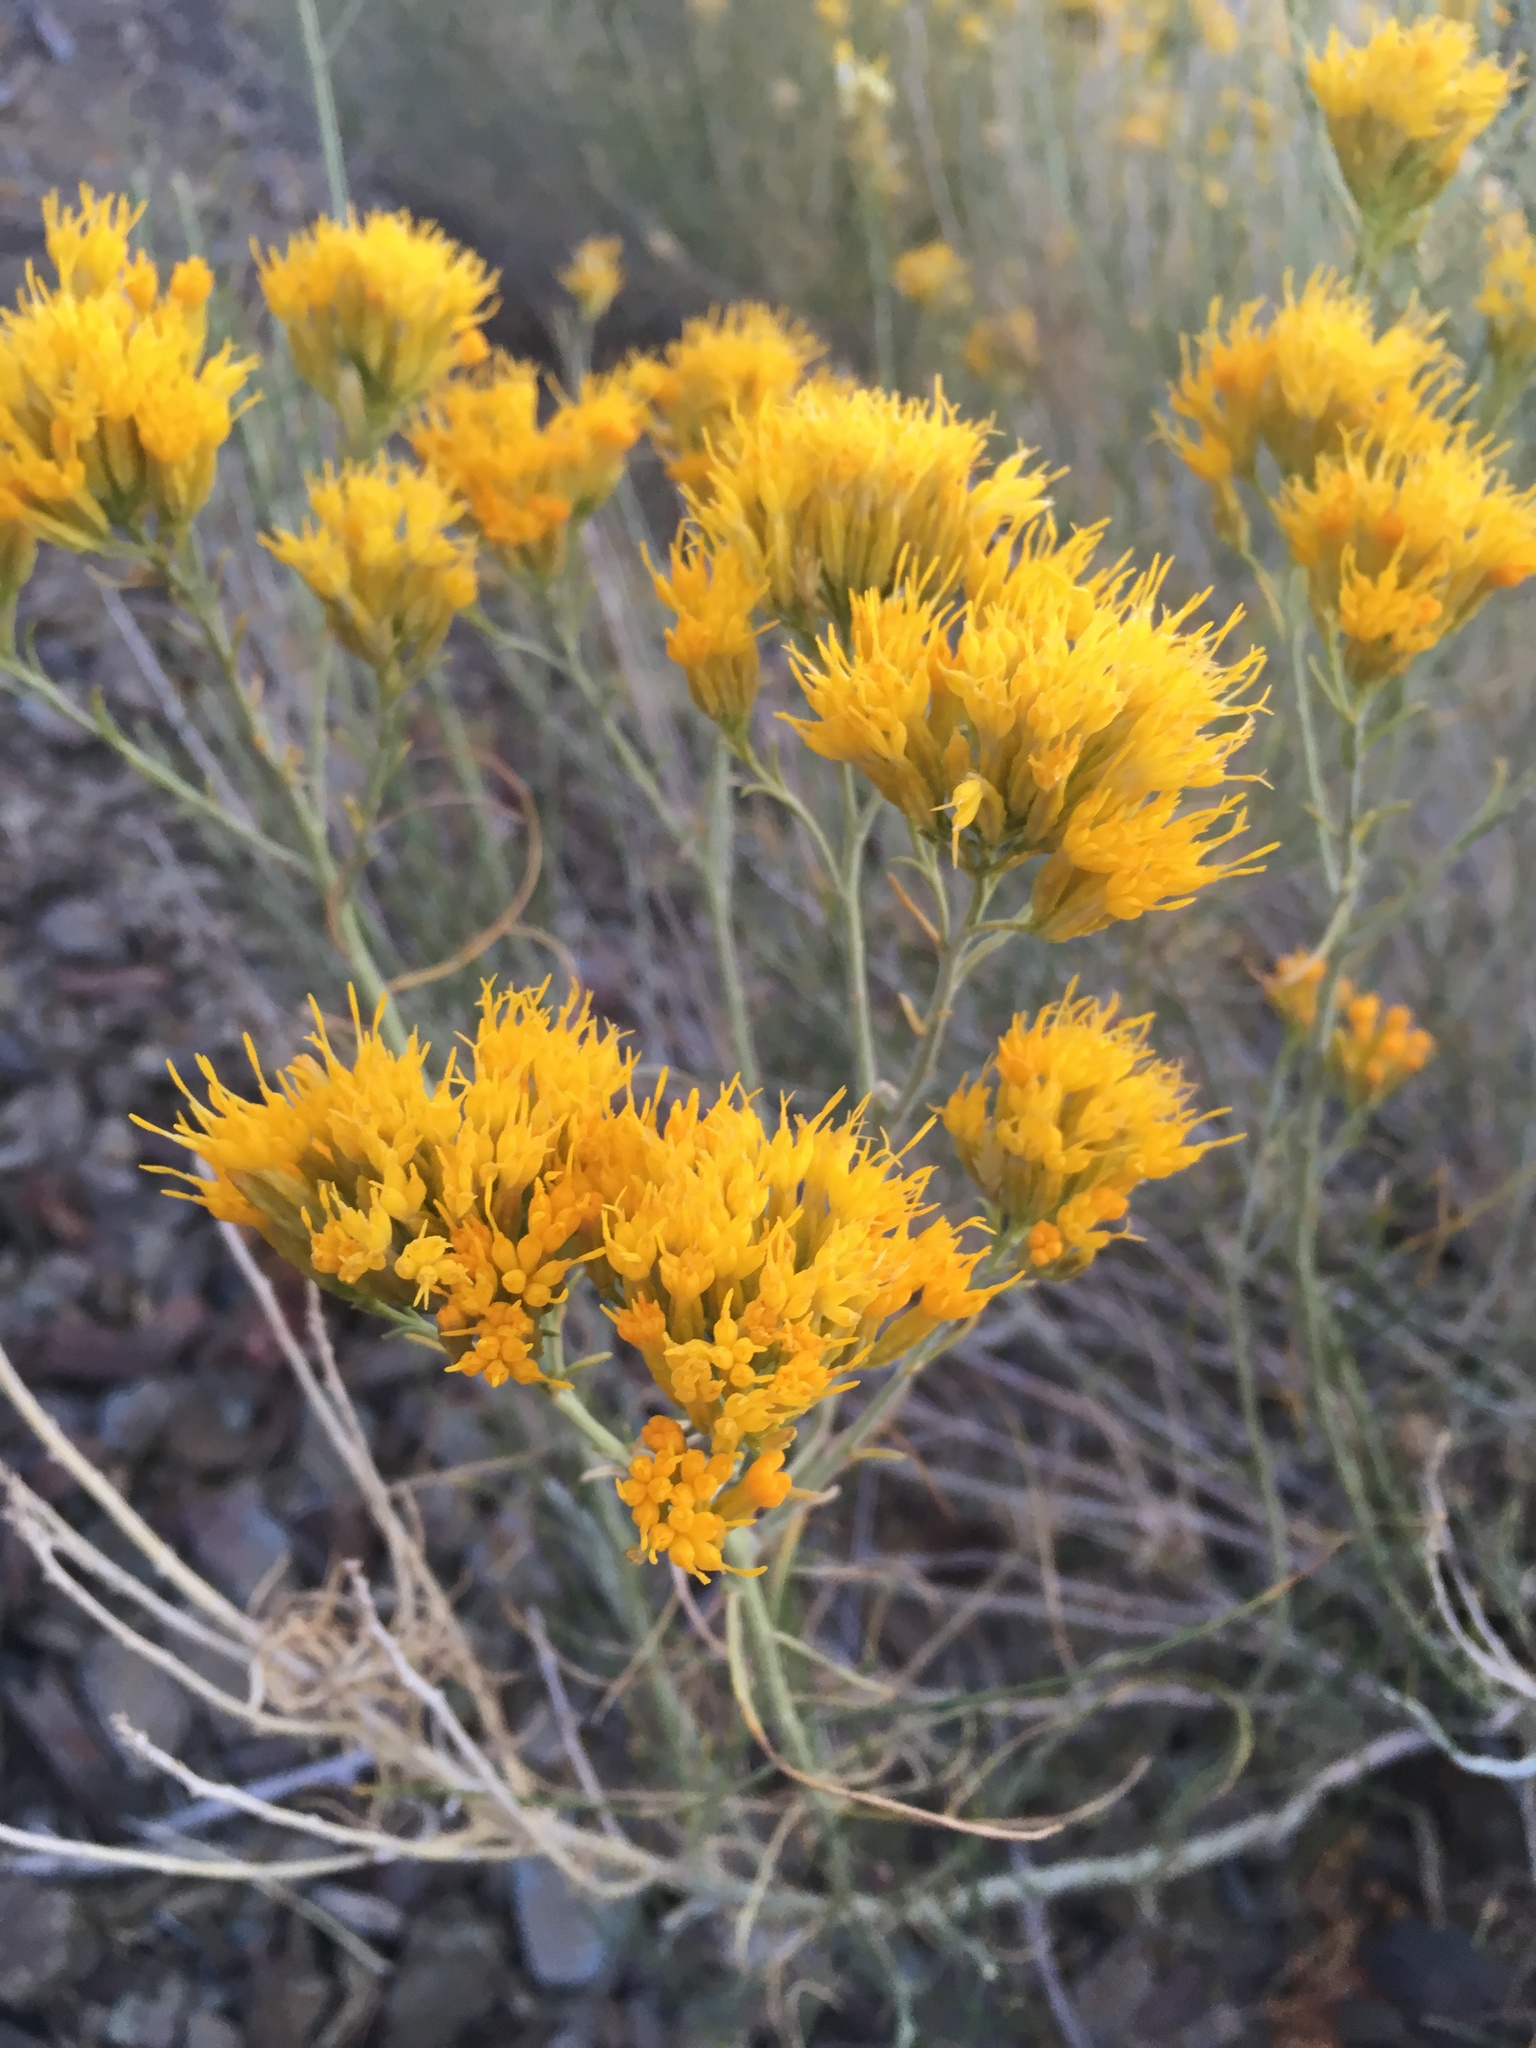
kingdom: Plantae
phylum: Tracheophyta
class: Magnoliopsida
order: Asterales
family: Asteraceae
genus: Ericameria
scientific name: Ericameria nauseosa
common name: Rubber rabbitbrush
